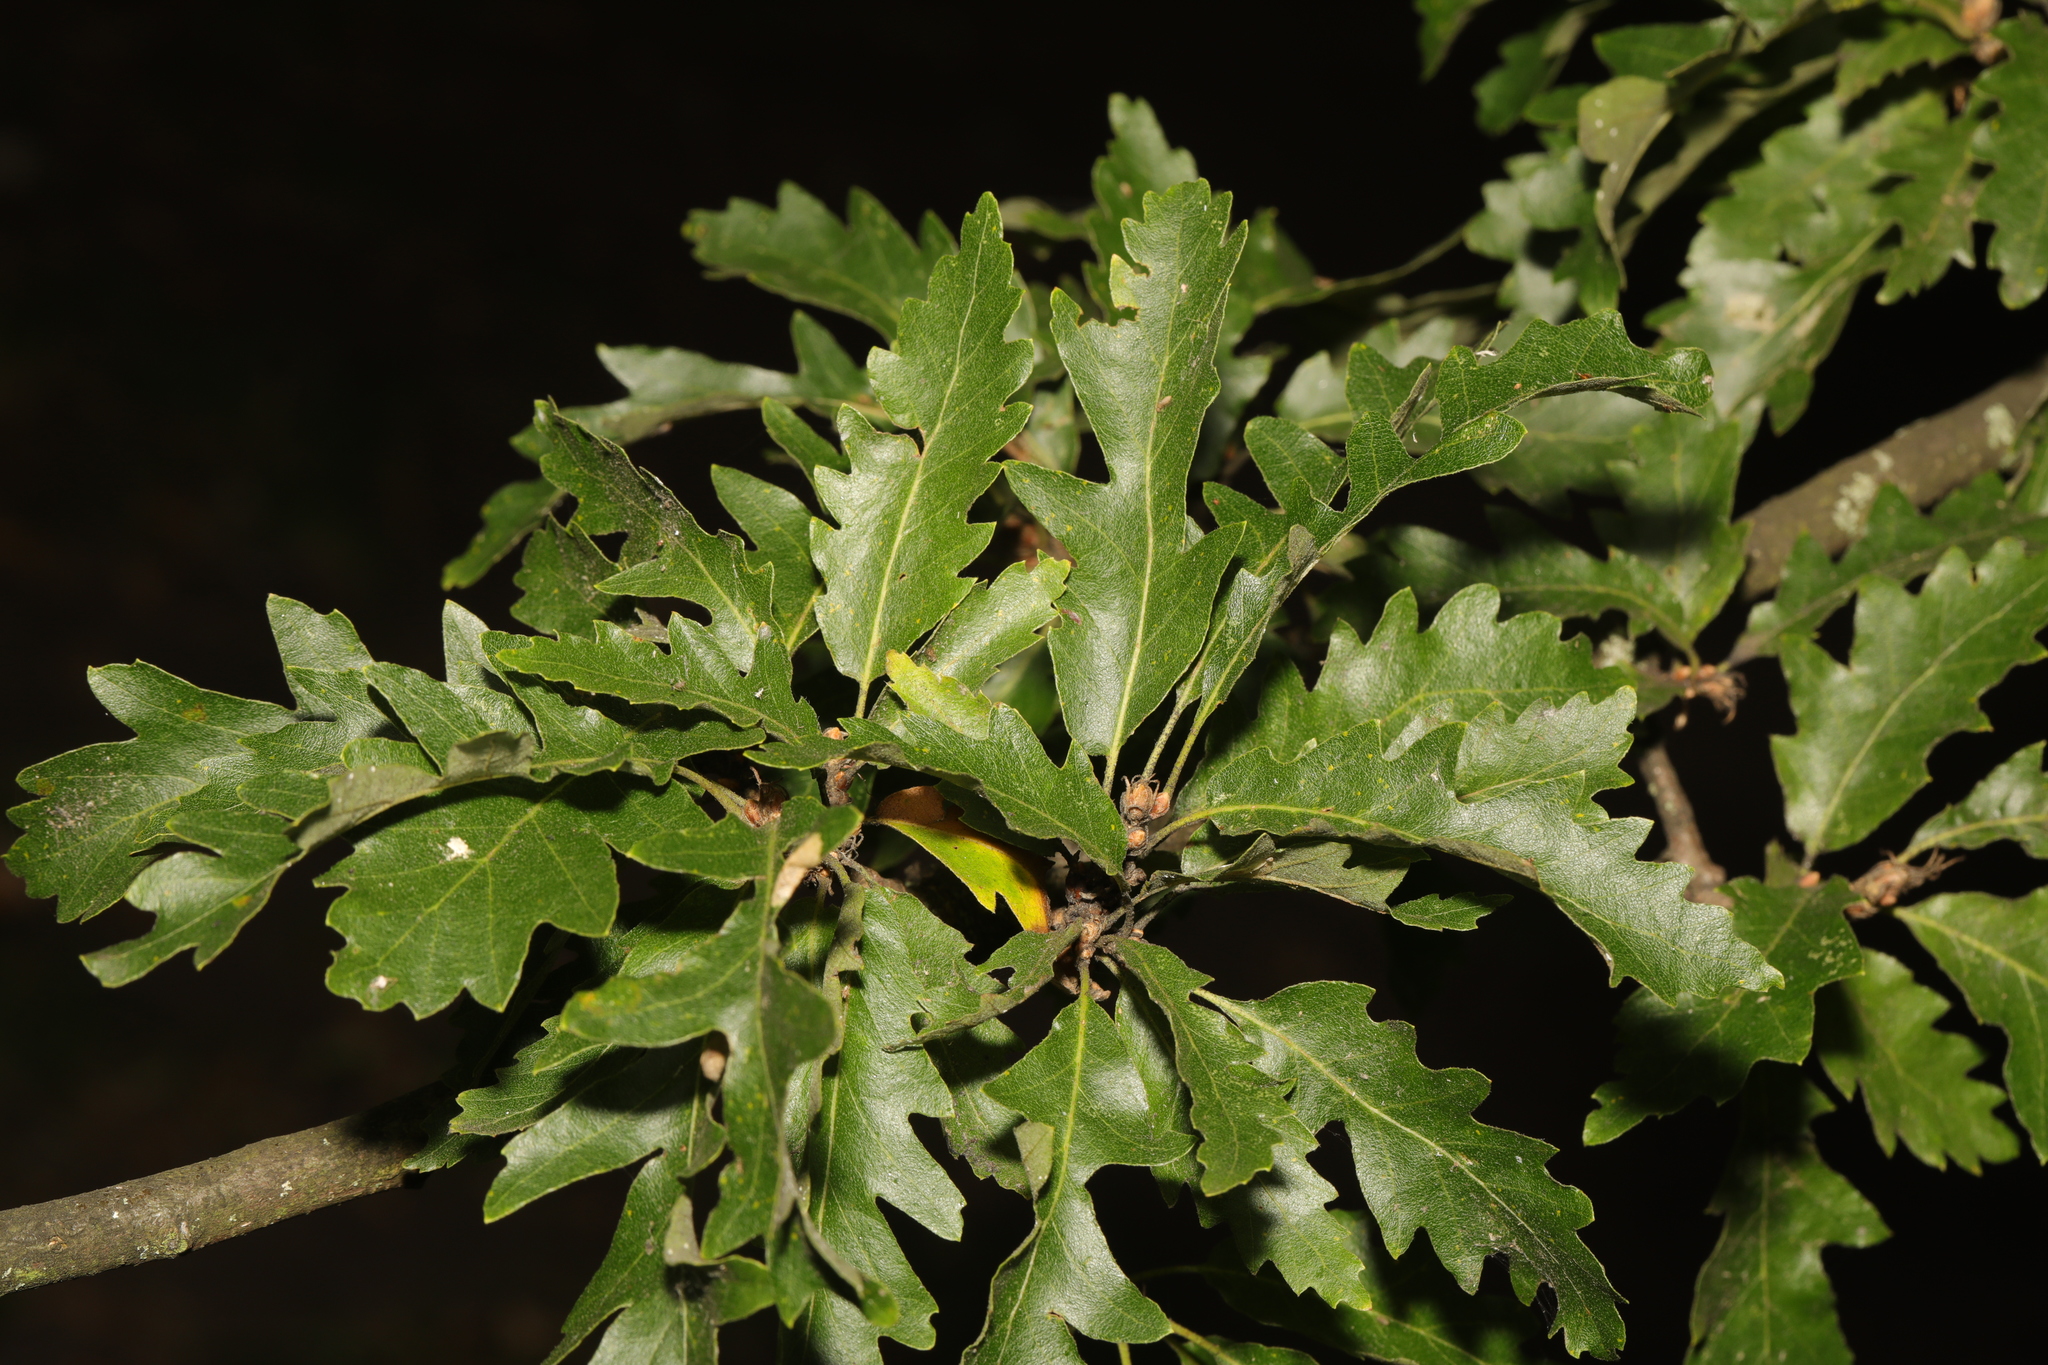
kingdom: Plantae
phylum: Tracheophyta
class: Magnoliopsida
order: Fagales
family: Fagaceae
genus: Quercus
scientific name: Quercus cerris
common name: Turkey oak
